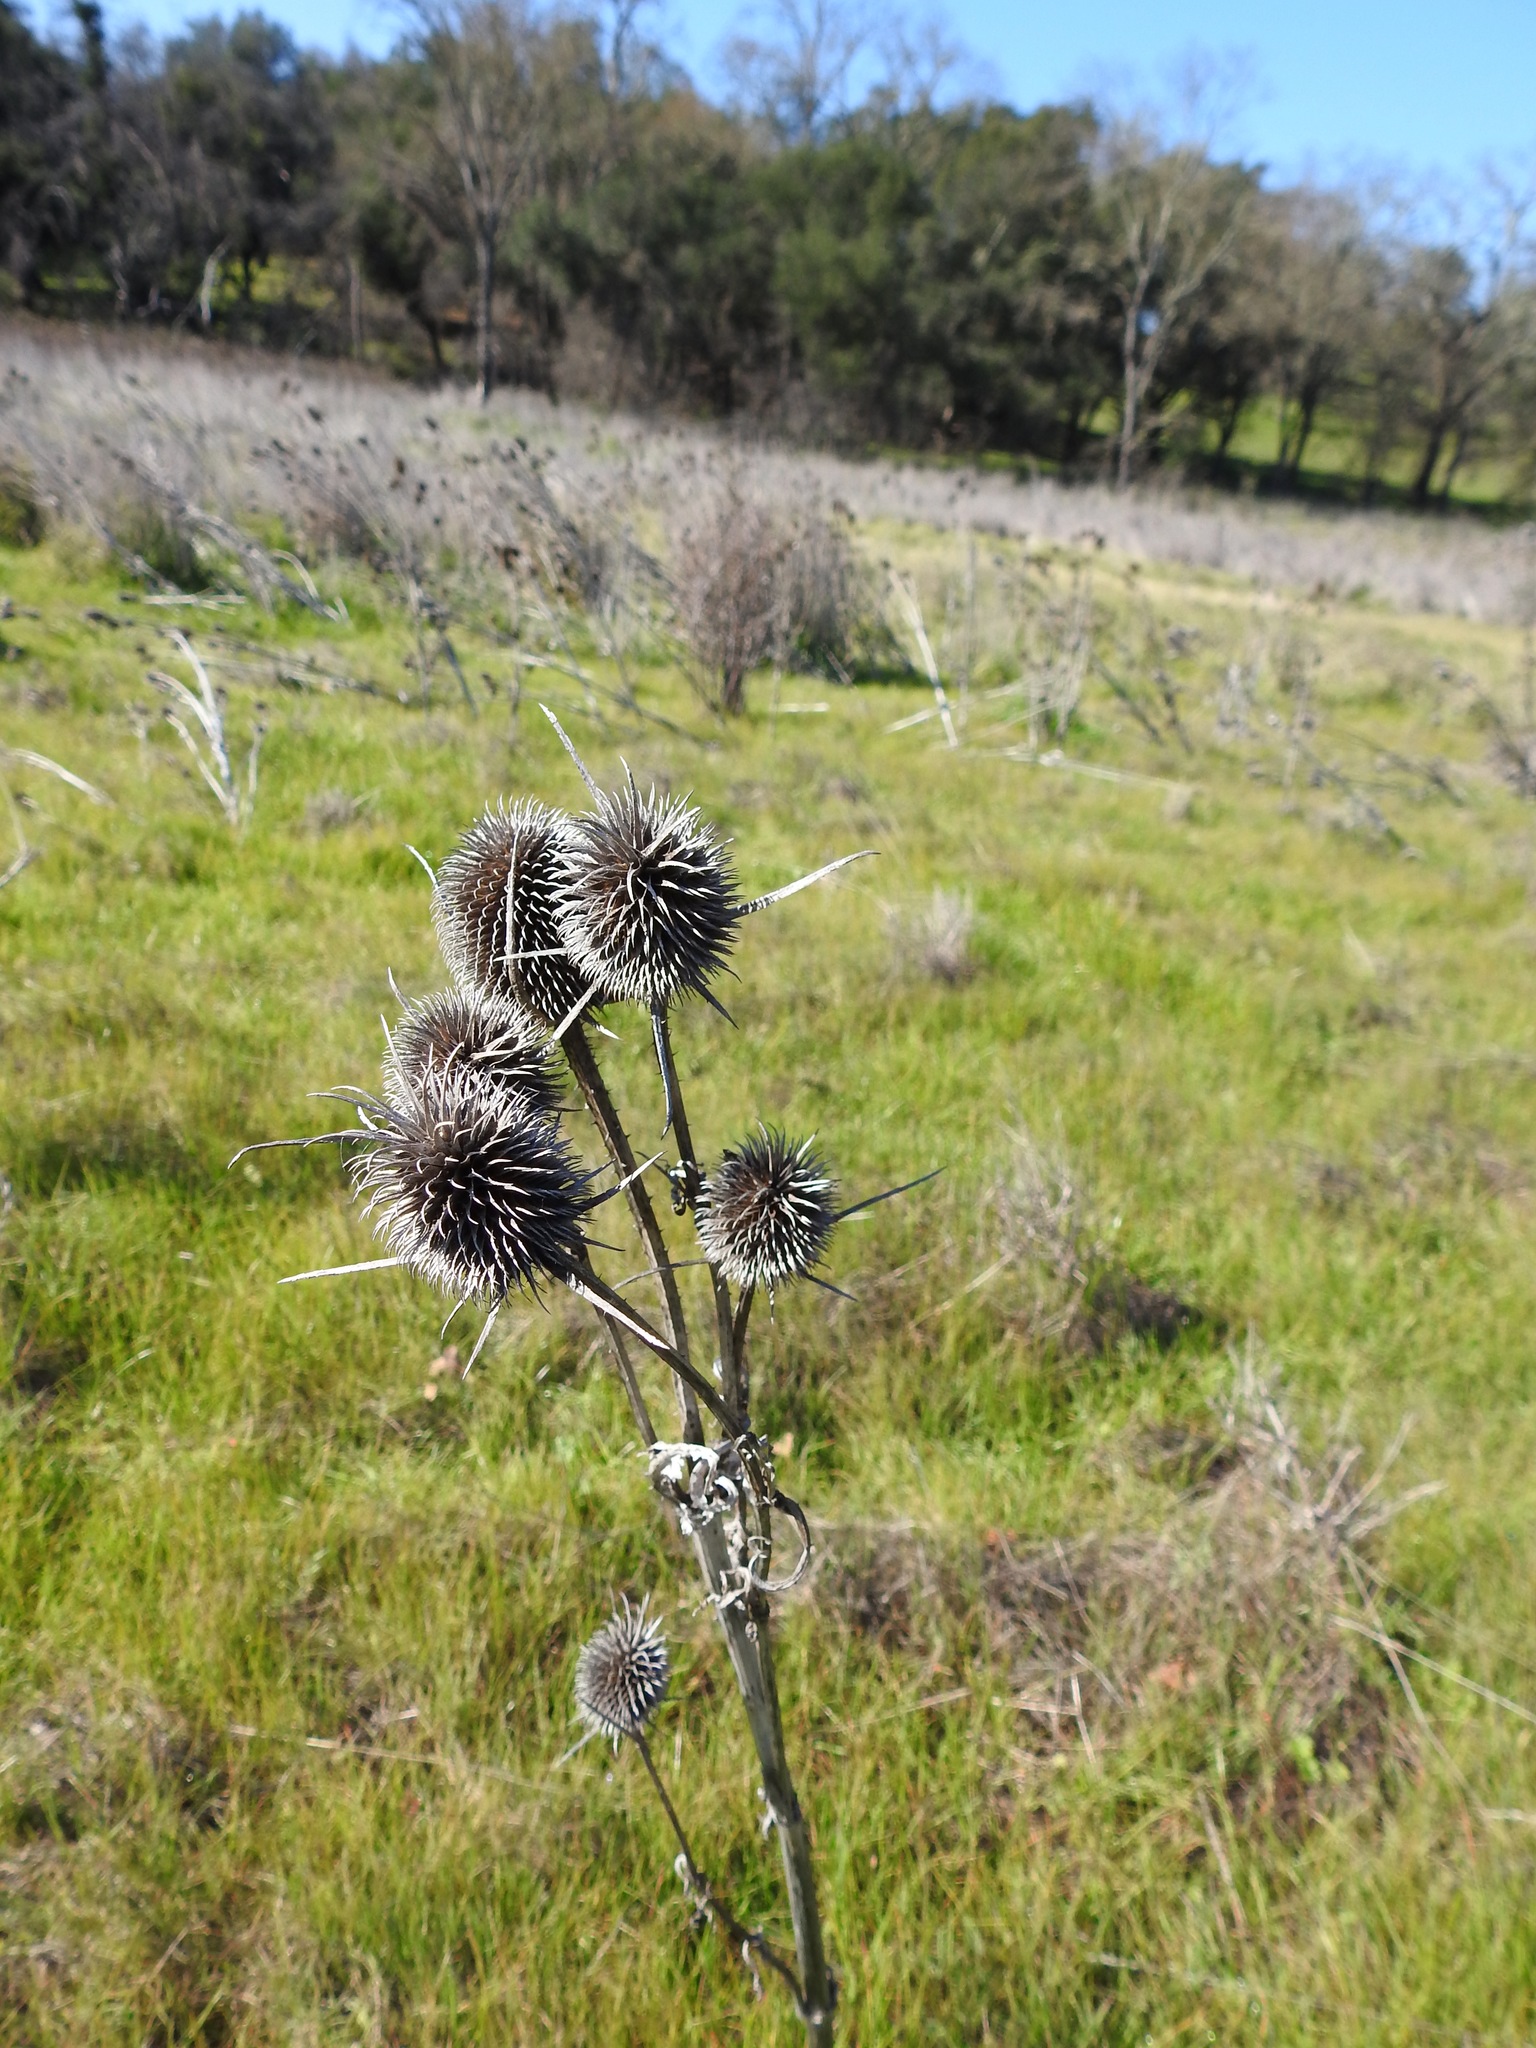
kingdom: Plantae
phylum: Tracheophyta
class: Magnoliopsida
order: Dipsacales
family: Caprifoliaceae
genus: Dipsacus
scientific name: Dipsacus sativus
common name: Fuller's teasel
